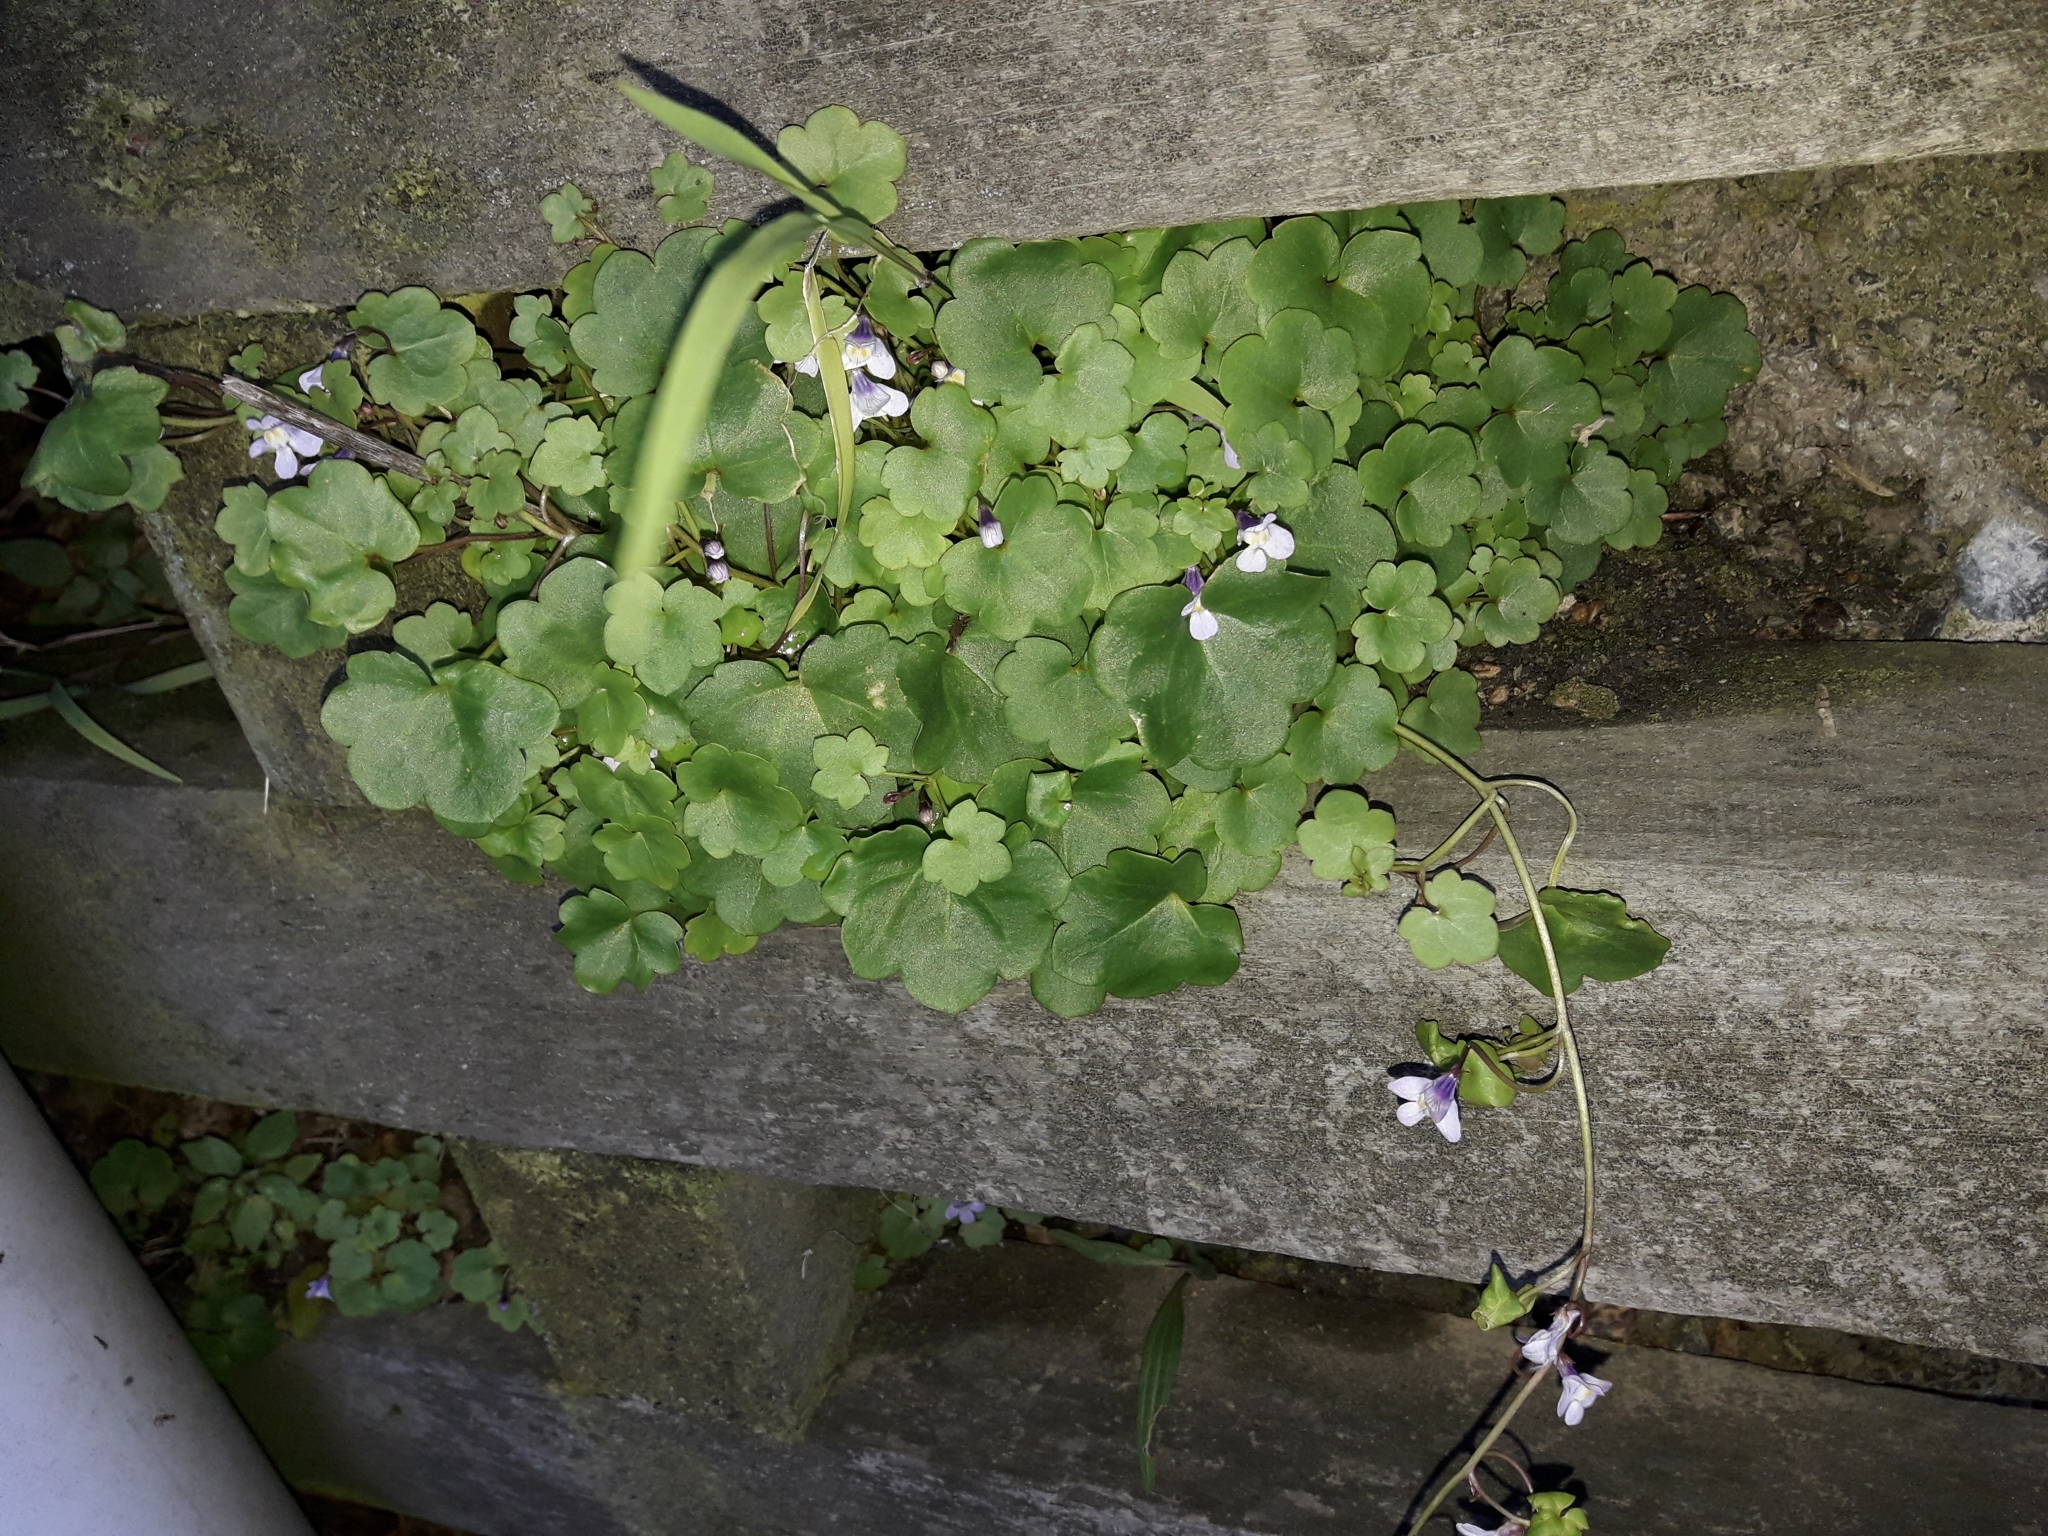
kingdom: Plantae
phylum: Tracheophyta
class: Magnoliopsida
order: Lamiales
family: Plantaginaceae
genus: Cymbalaria
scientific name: Cymbalaria muralis
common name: Ivy-leaved toadflax
